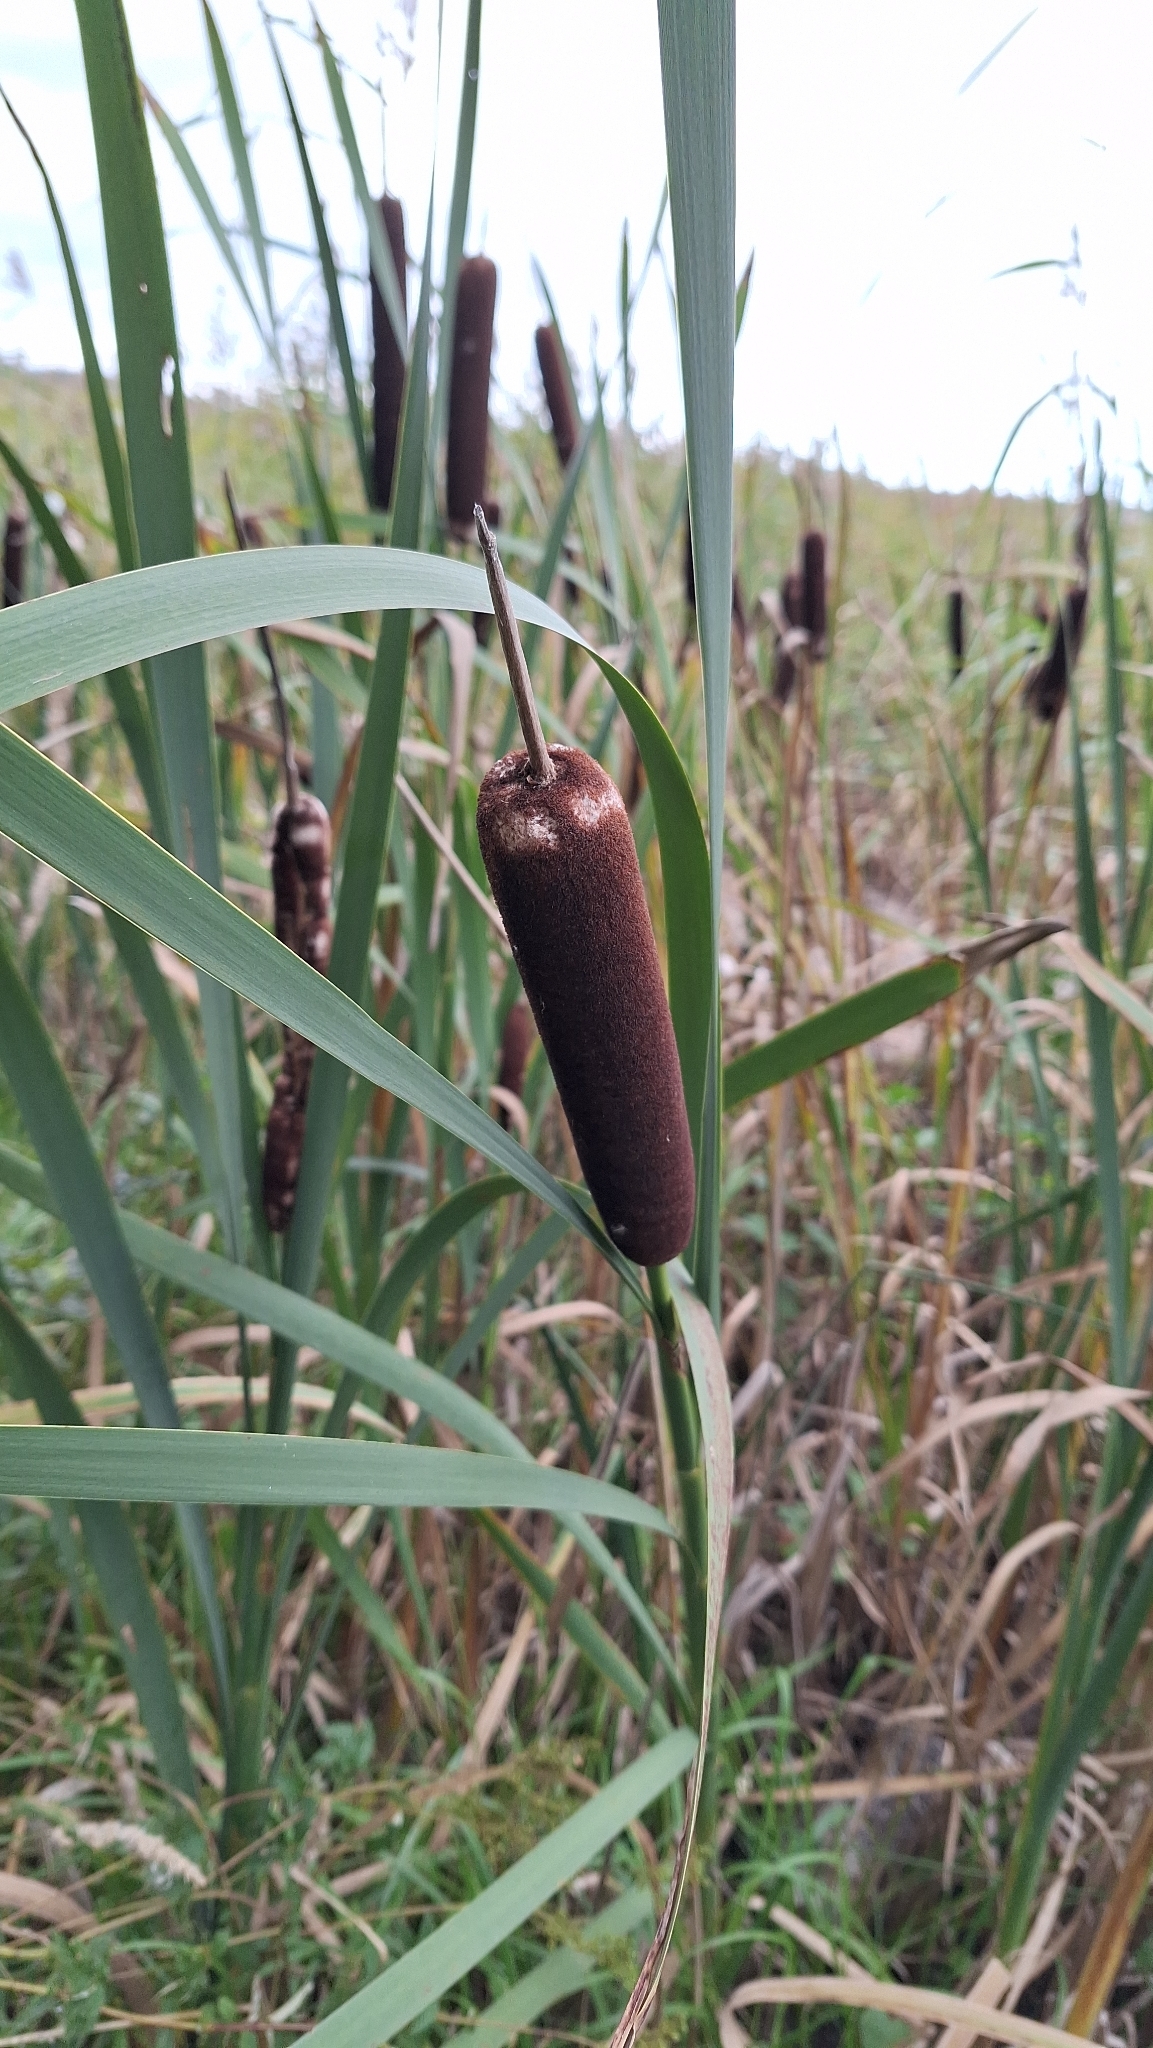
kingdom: Plantae
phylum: Tracheophyta
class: Liliopsida
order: Poales
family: Typhaceae
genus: Typha
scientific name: Typha latifolia
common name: Broadleaf cattail
